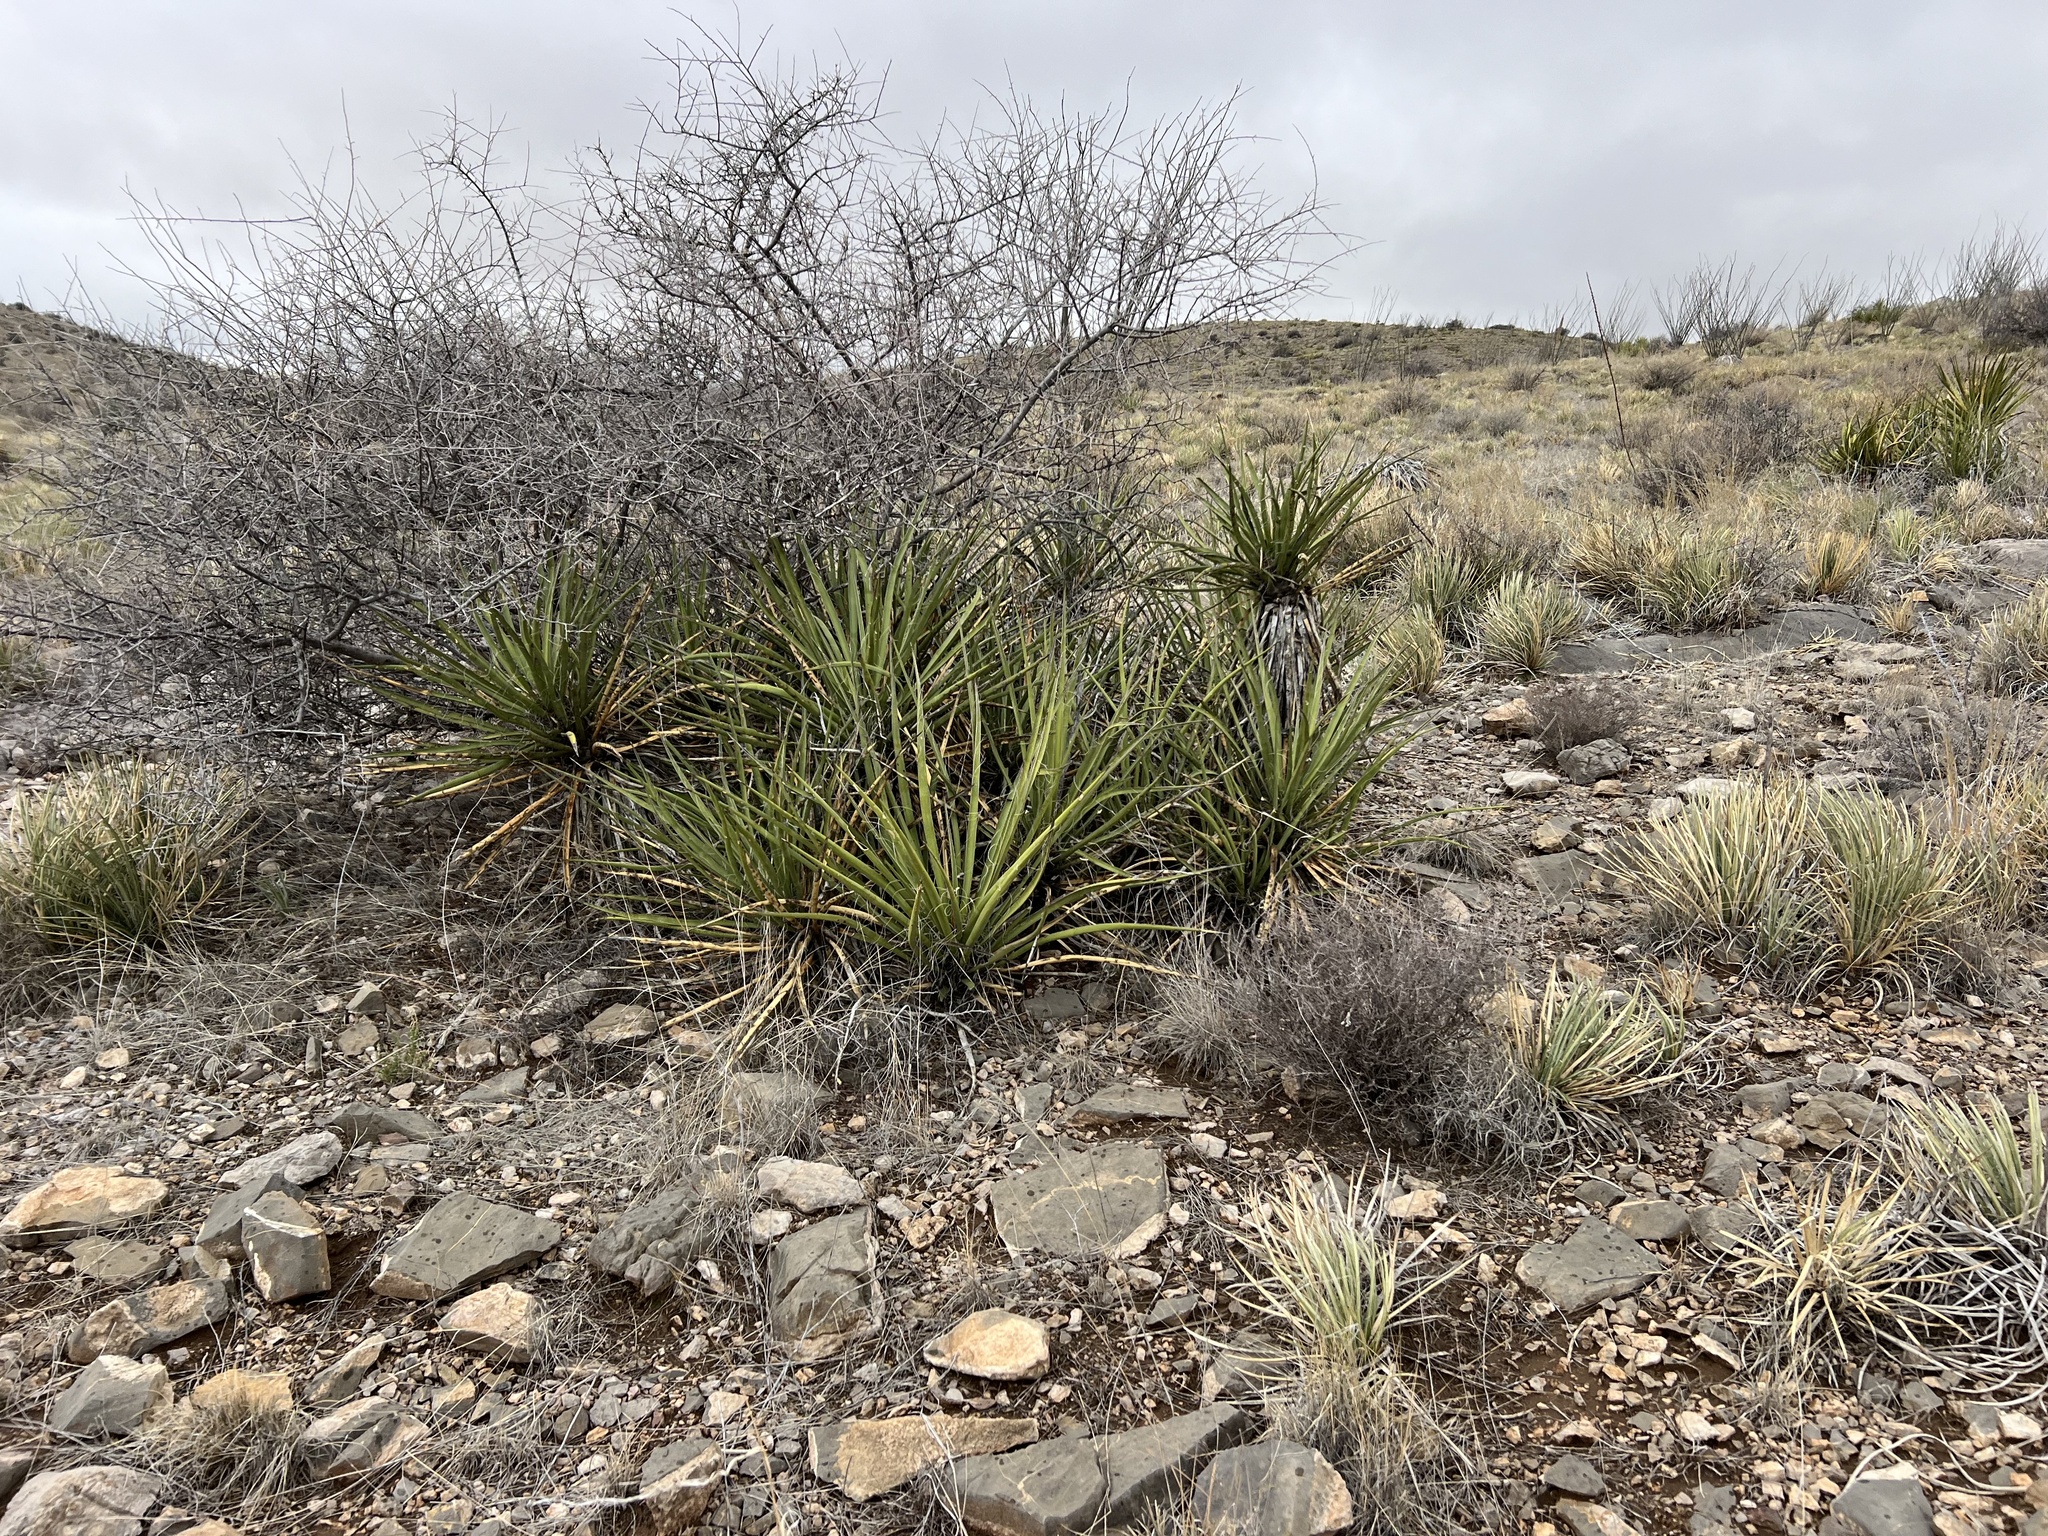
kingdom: Plantae
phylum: Tracheophyta
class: Liliopsida
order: Asparagales
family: Asparagaceae
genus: Yucca
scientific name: Yucca baccata
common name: Banana yucca
